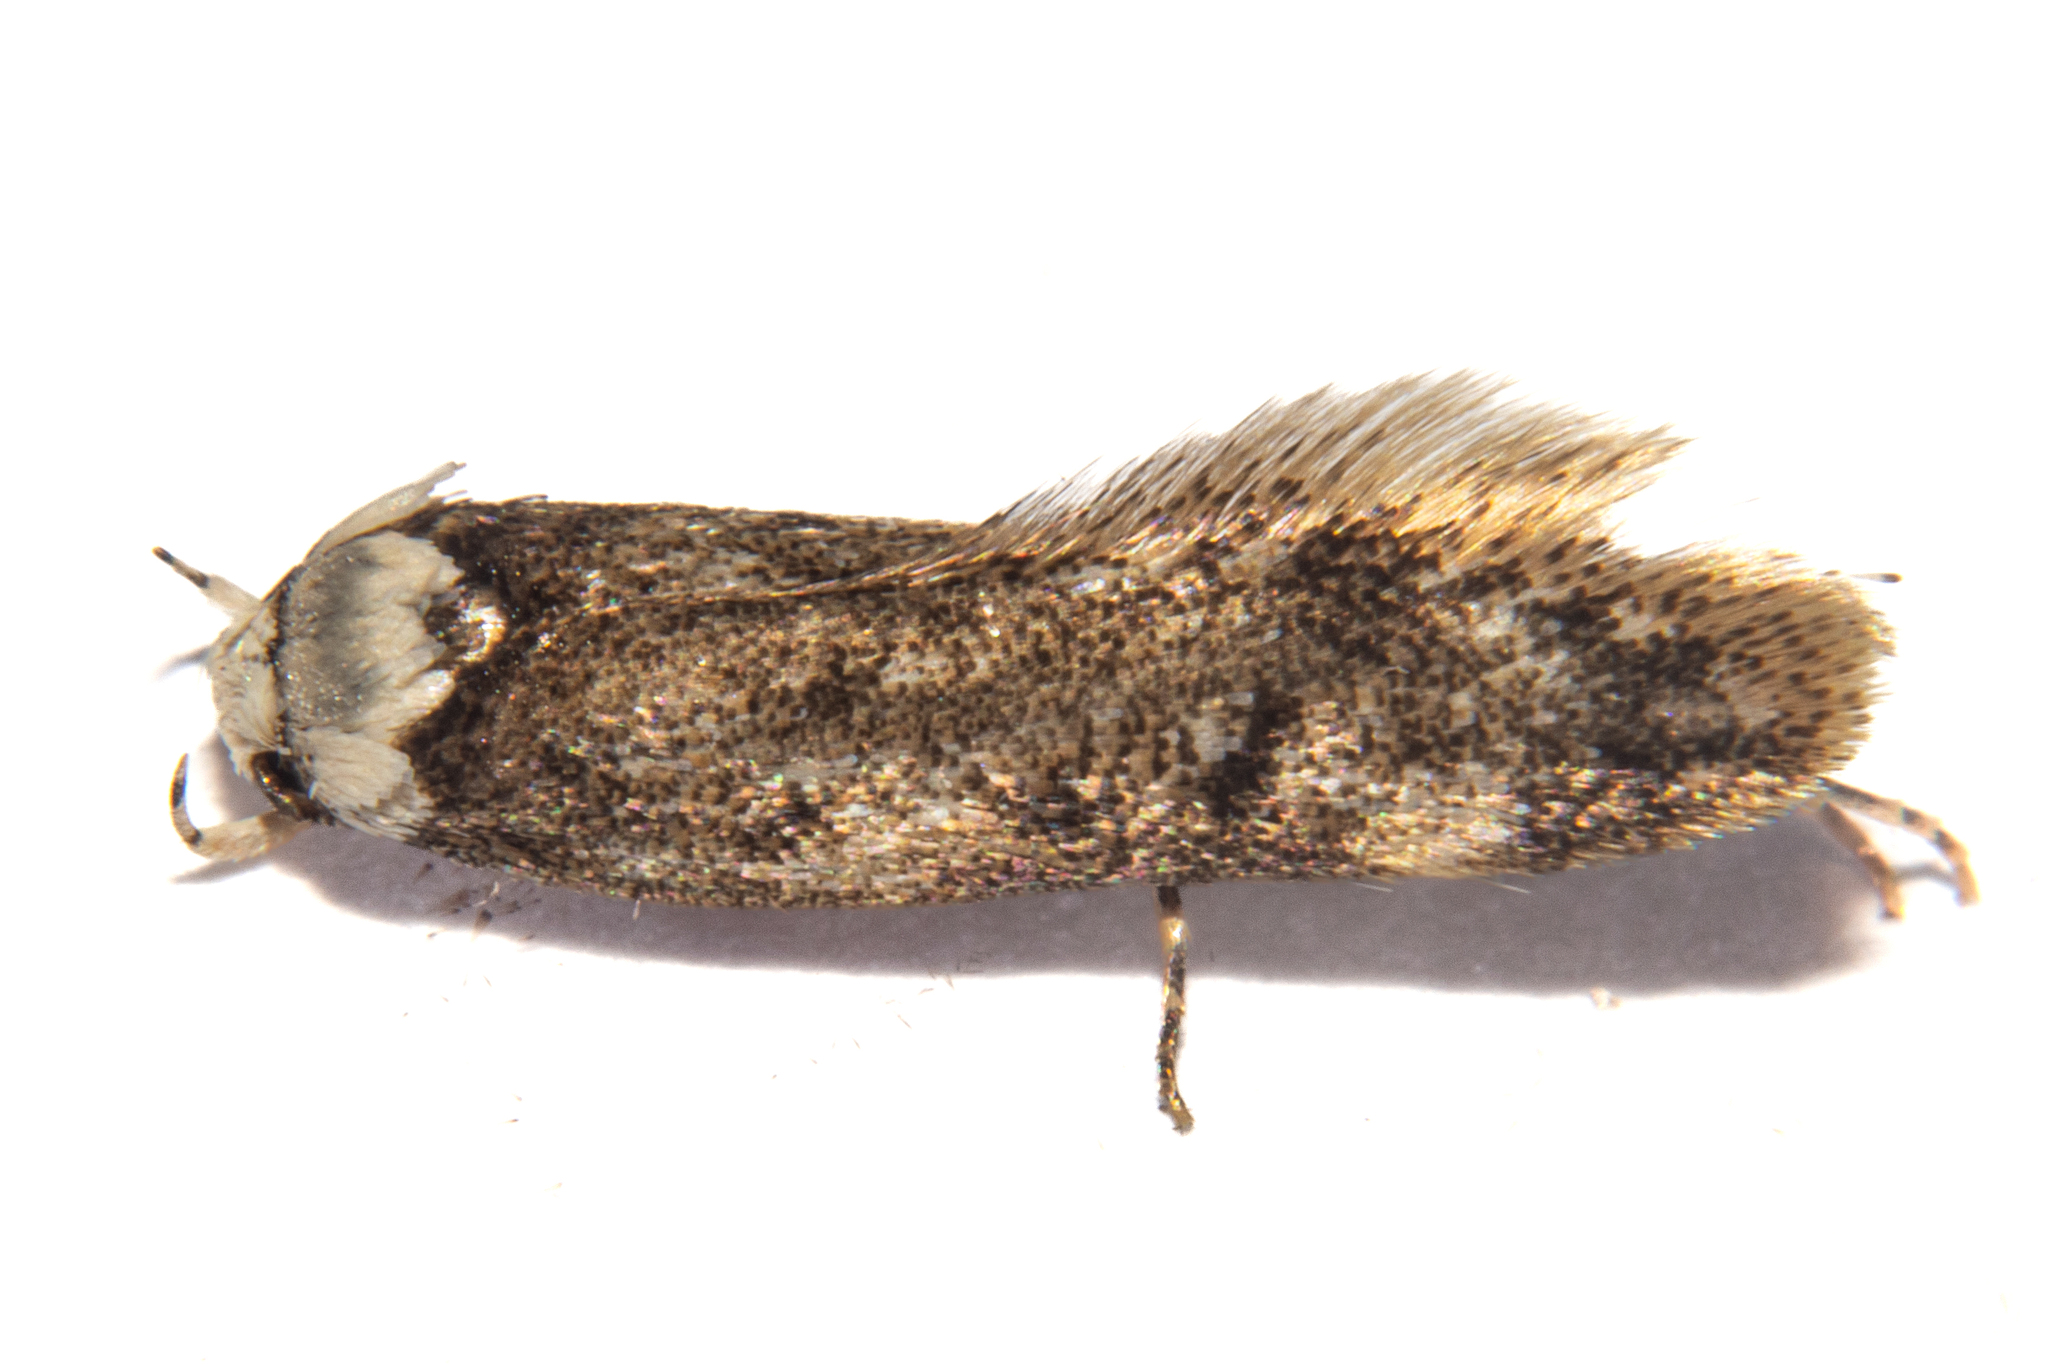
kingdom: Animalia
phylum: Arthropoda
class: Insecta
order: Lepidoptera
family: Oecophoridae
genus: Endrosis
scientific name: Endrosis sarcitrella
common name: White-shouldered house moth
